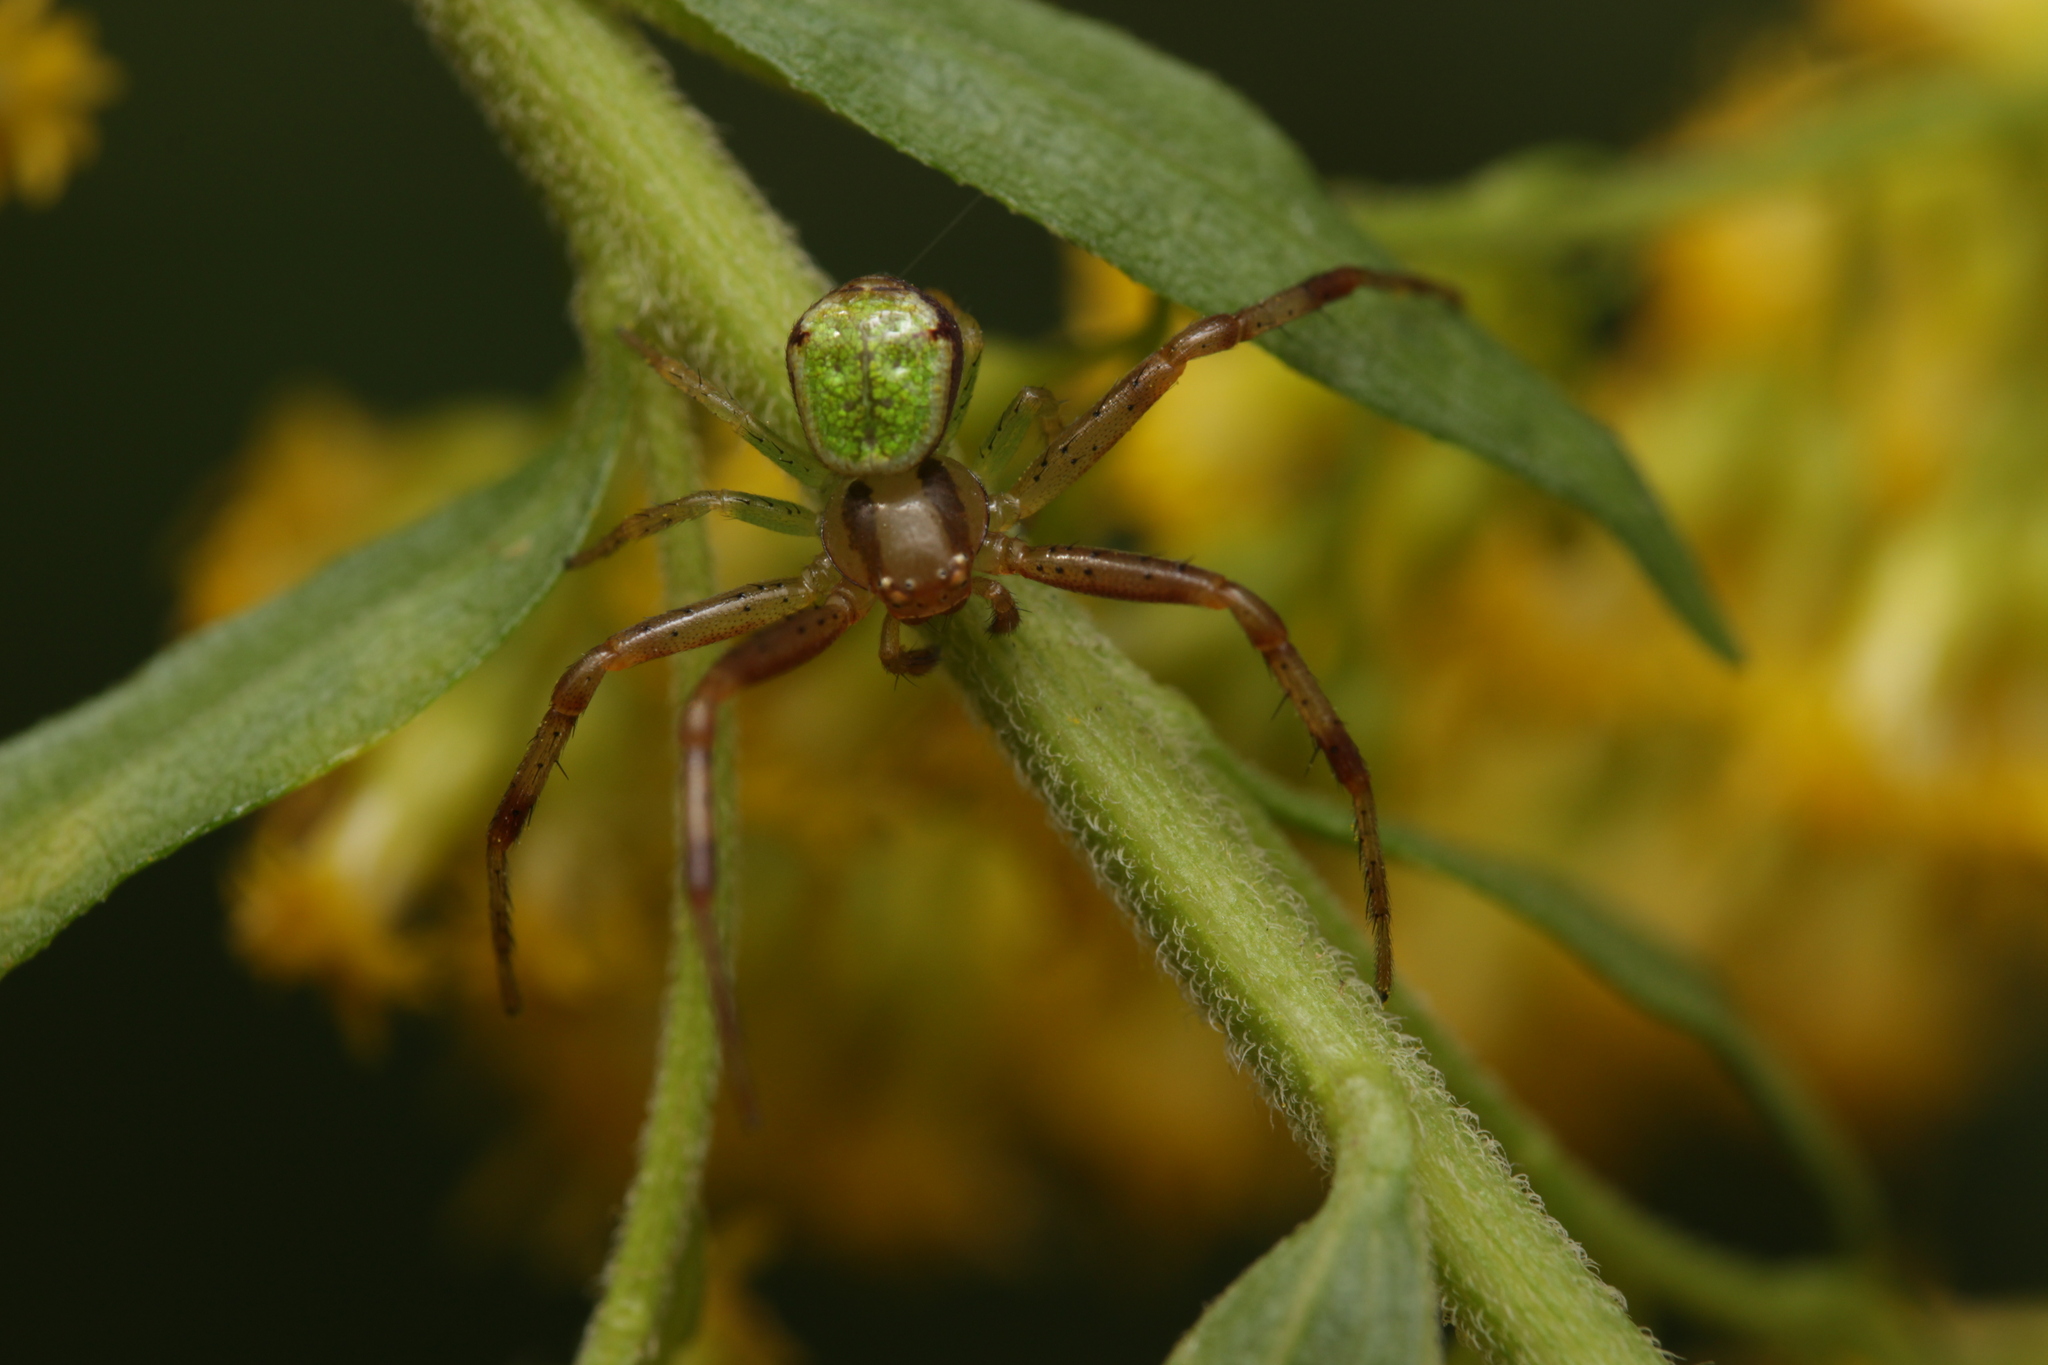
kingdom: Animalia
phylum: Arthropoda
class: Arachnida
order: Araneae
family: Thomisidae
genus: Ebrechtella
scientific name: Ebrechtella tricuspidata
